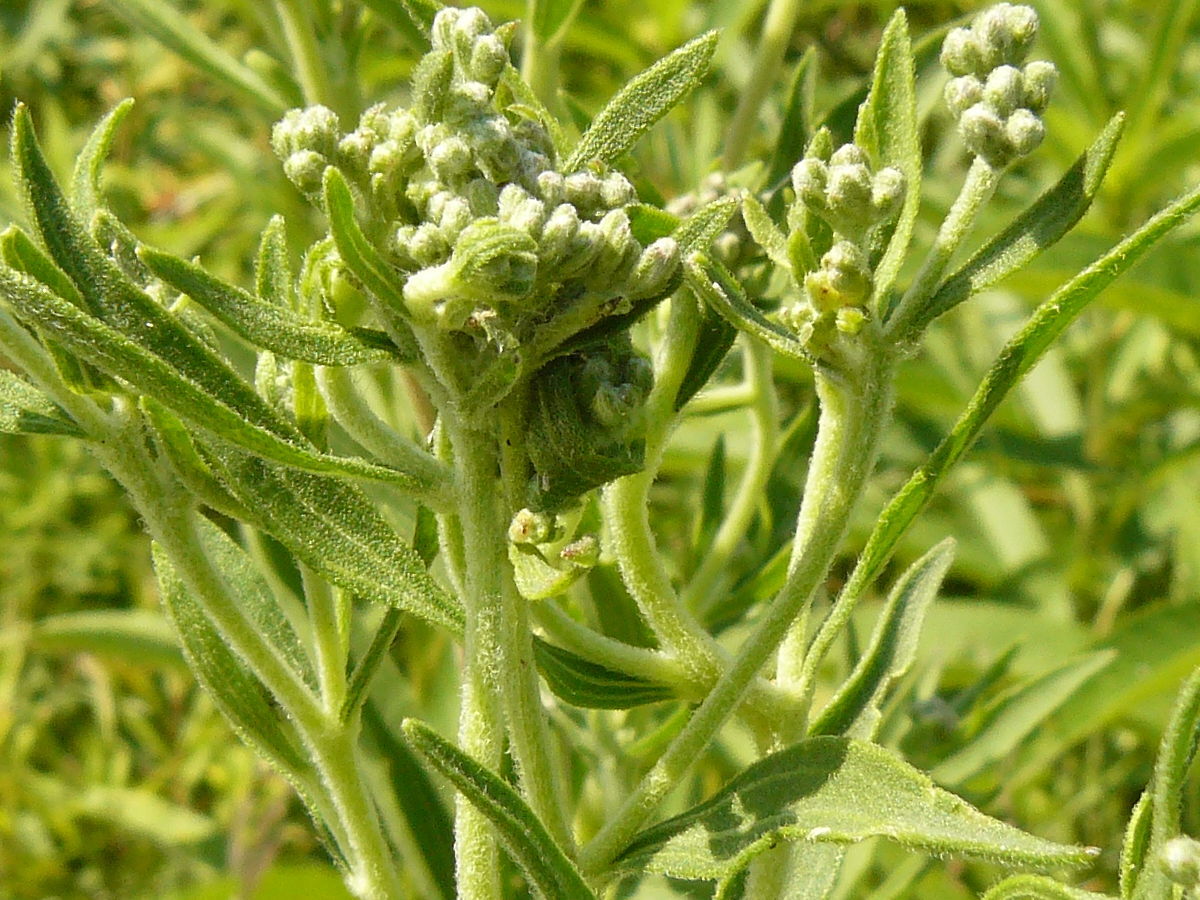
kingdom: Plantae
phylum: Tracheophyta
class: Magnoliopsida
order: Asterales
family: Asteraceae
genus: Eupatorium
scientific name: Eupatorium altissimum
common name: Tall thoroughwort
